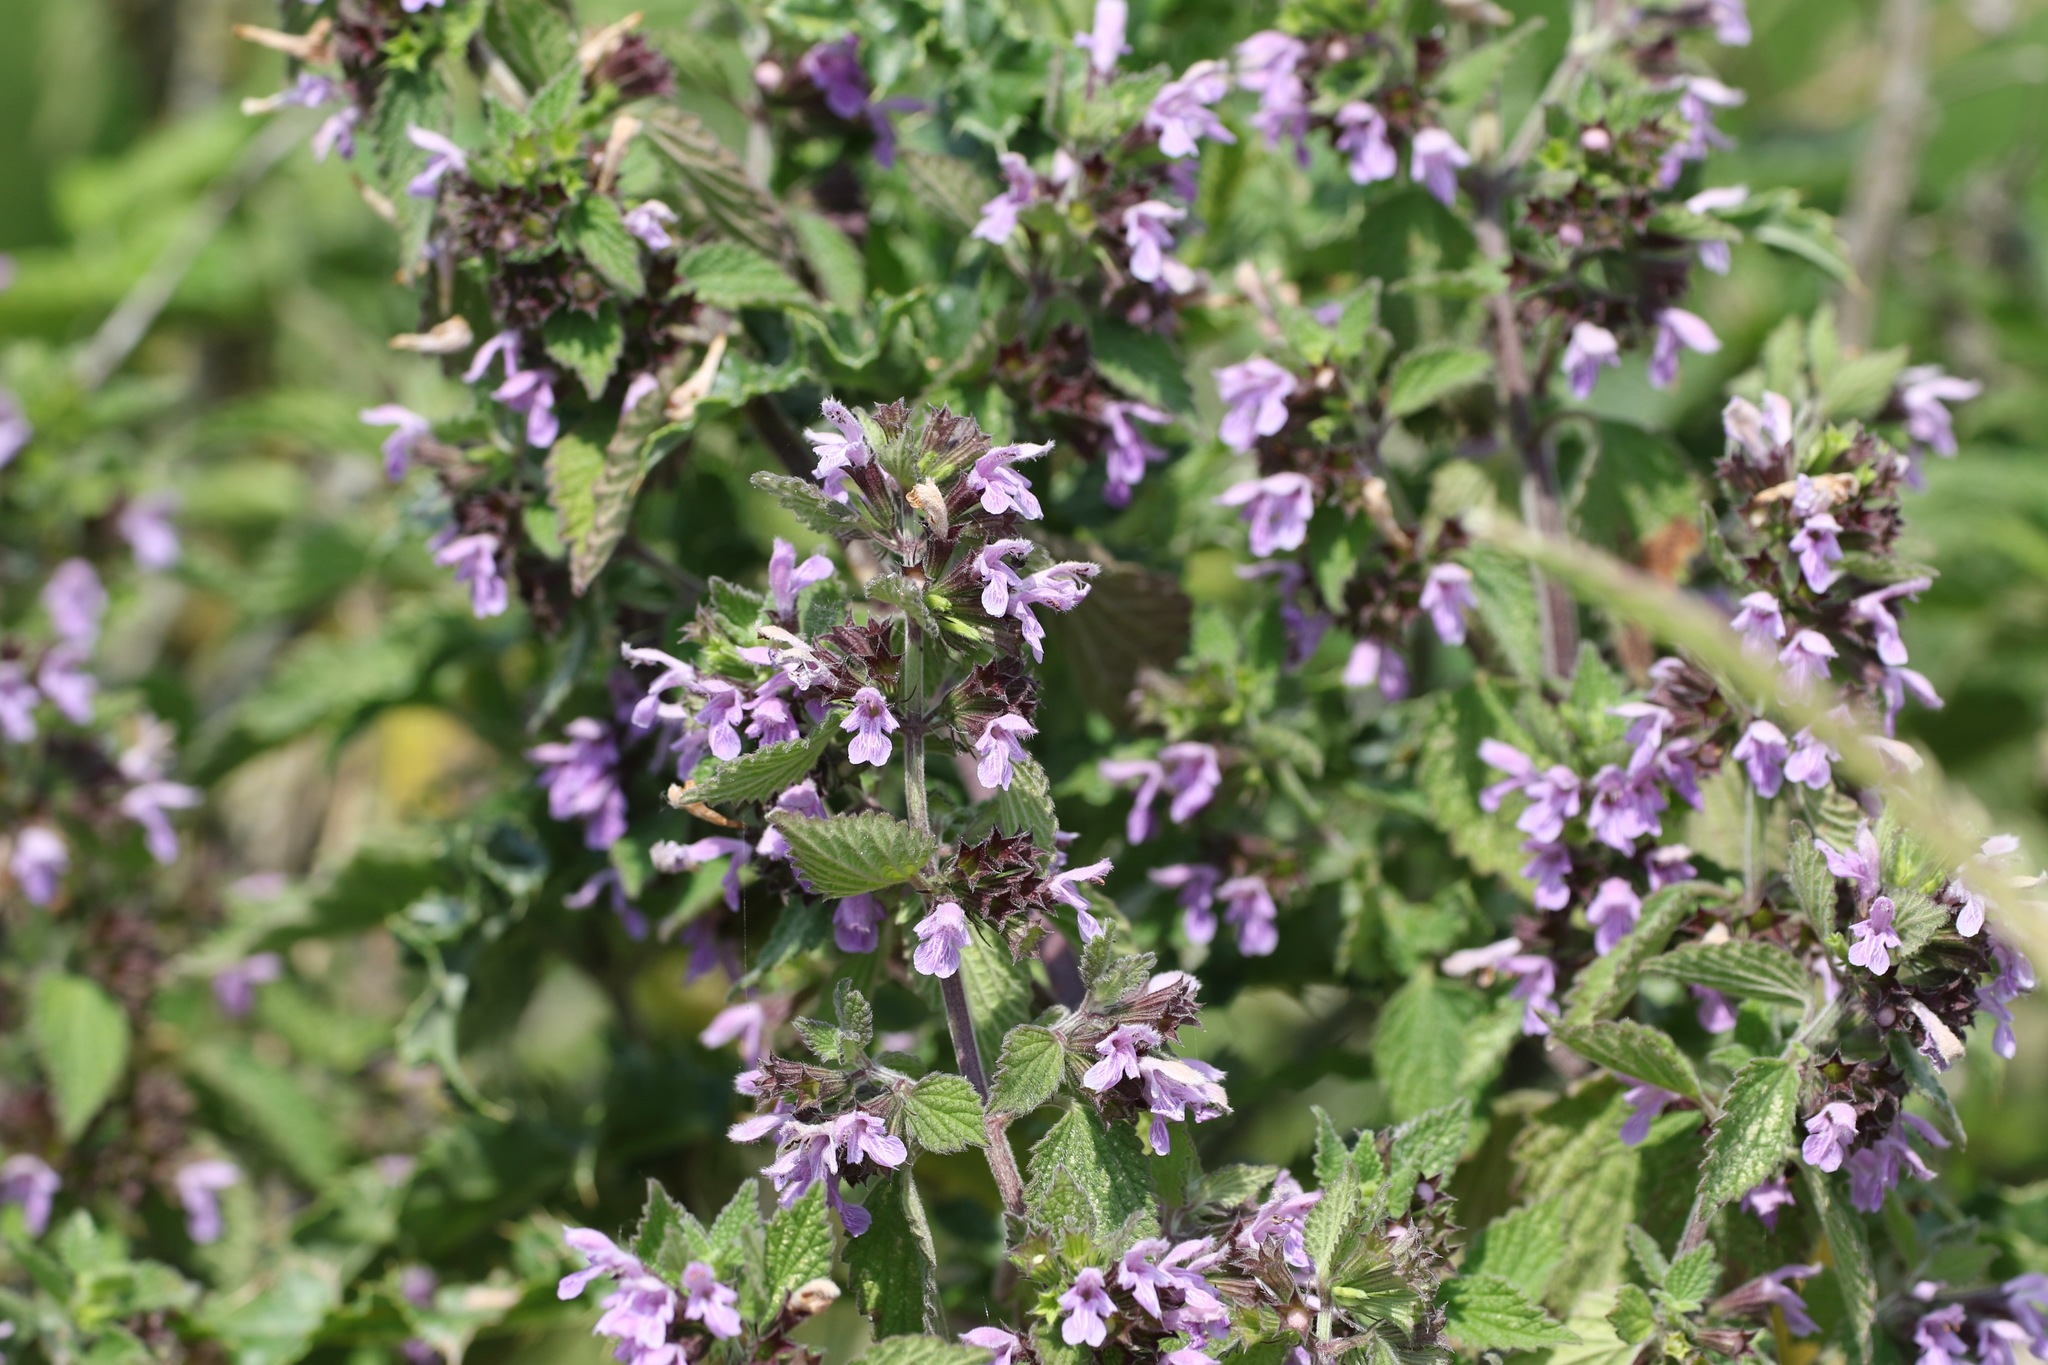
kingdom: Plantae
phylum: Tracheophyta
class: Magnoliopsida
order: Lamiales
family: Lamiaceae
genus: Ballota
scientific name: Ballota nigra
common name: Black horehound
